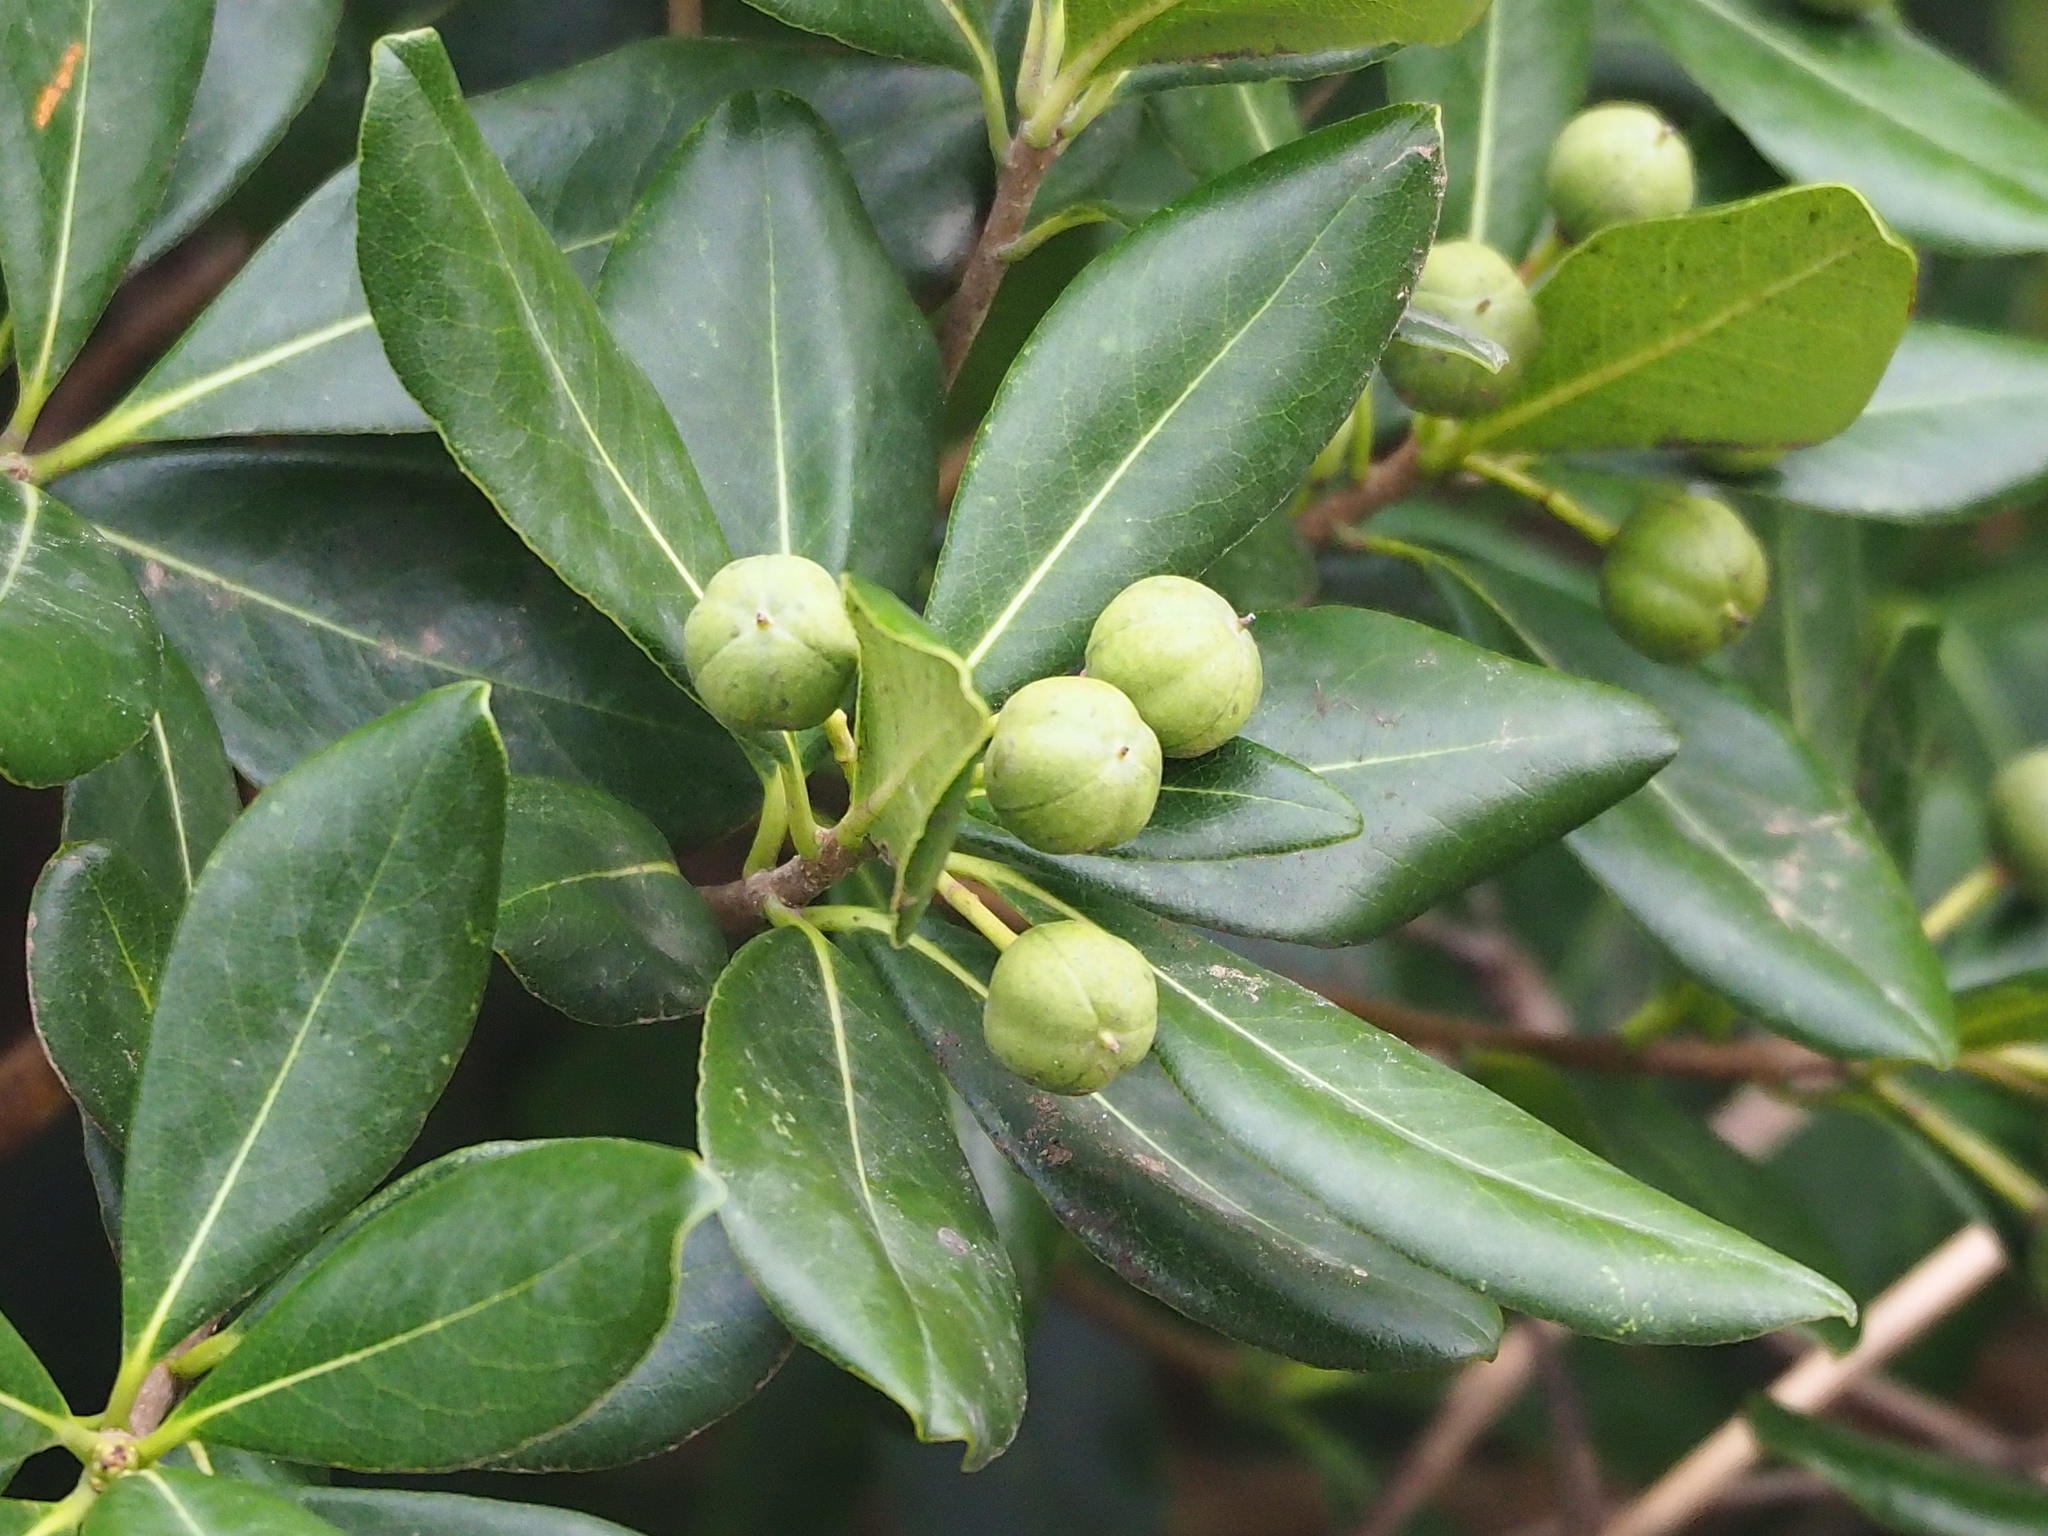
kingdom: Plantae
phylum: Tracheophyta
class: Magnoliopsida
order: Apiales
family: Pittosporaceae
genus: Pittosporum
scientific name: Pittosporum tobira
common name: Japanese cheesewood
